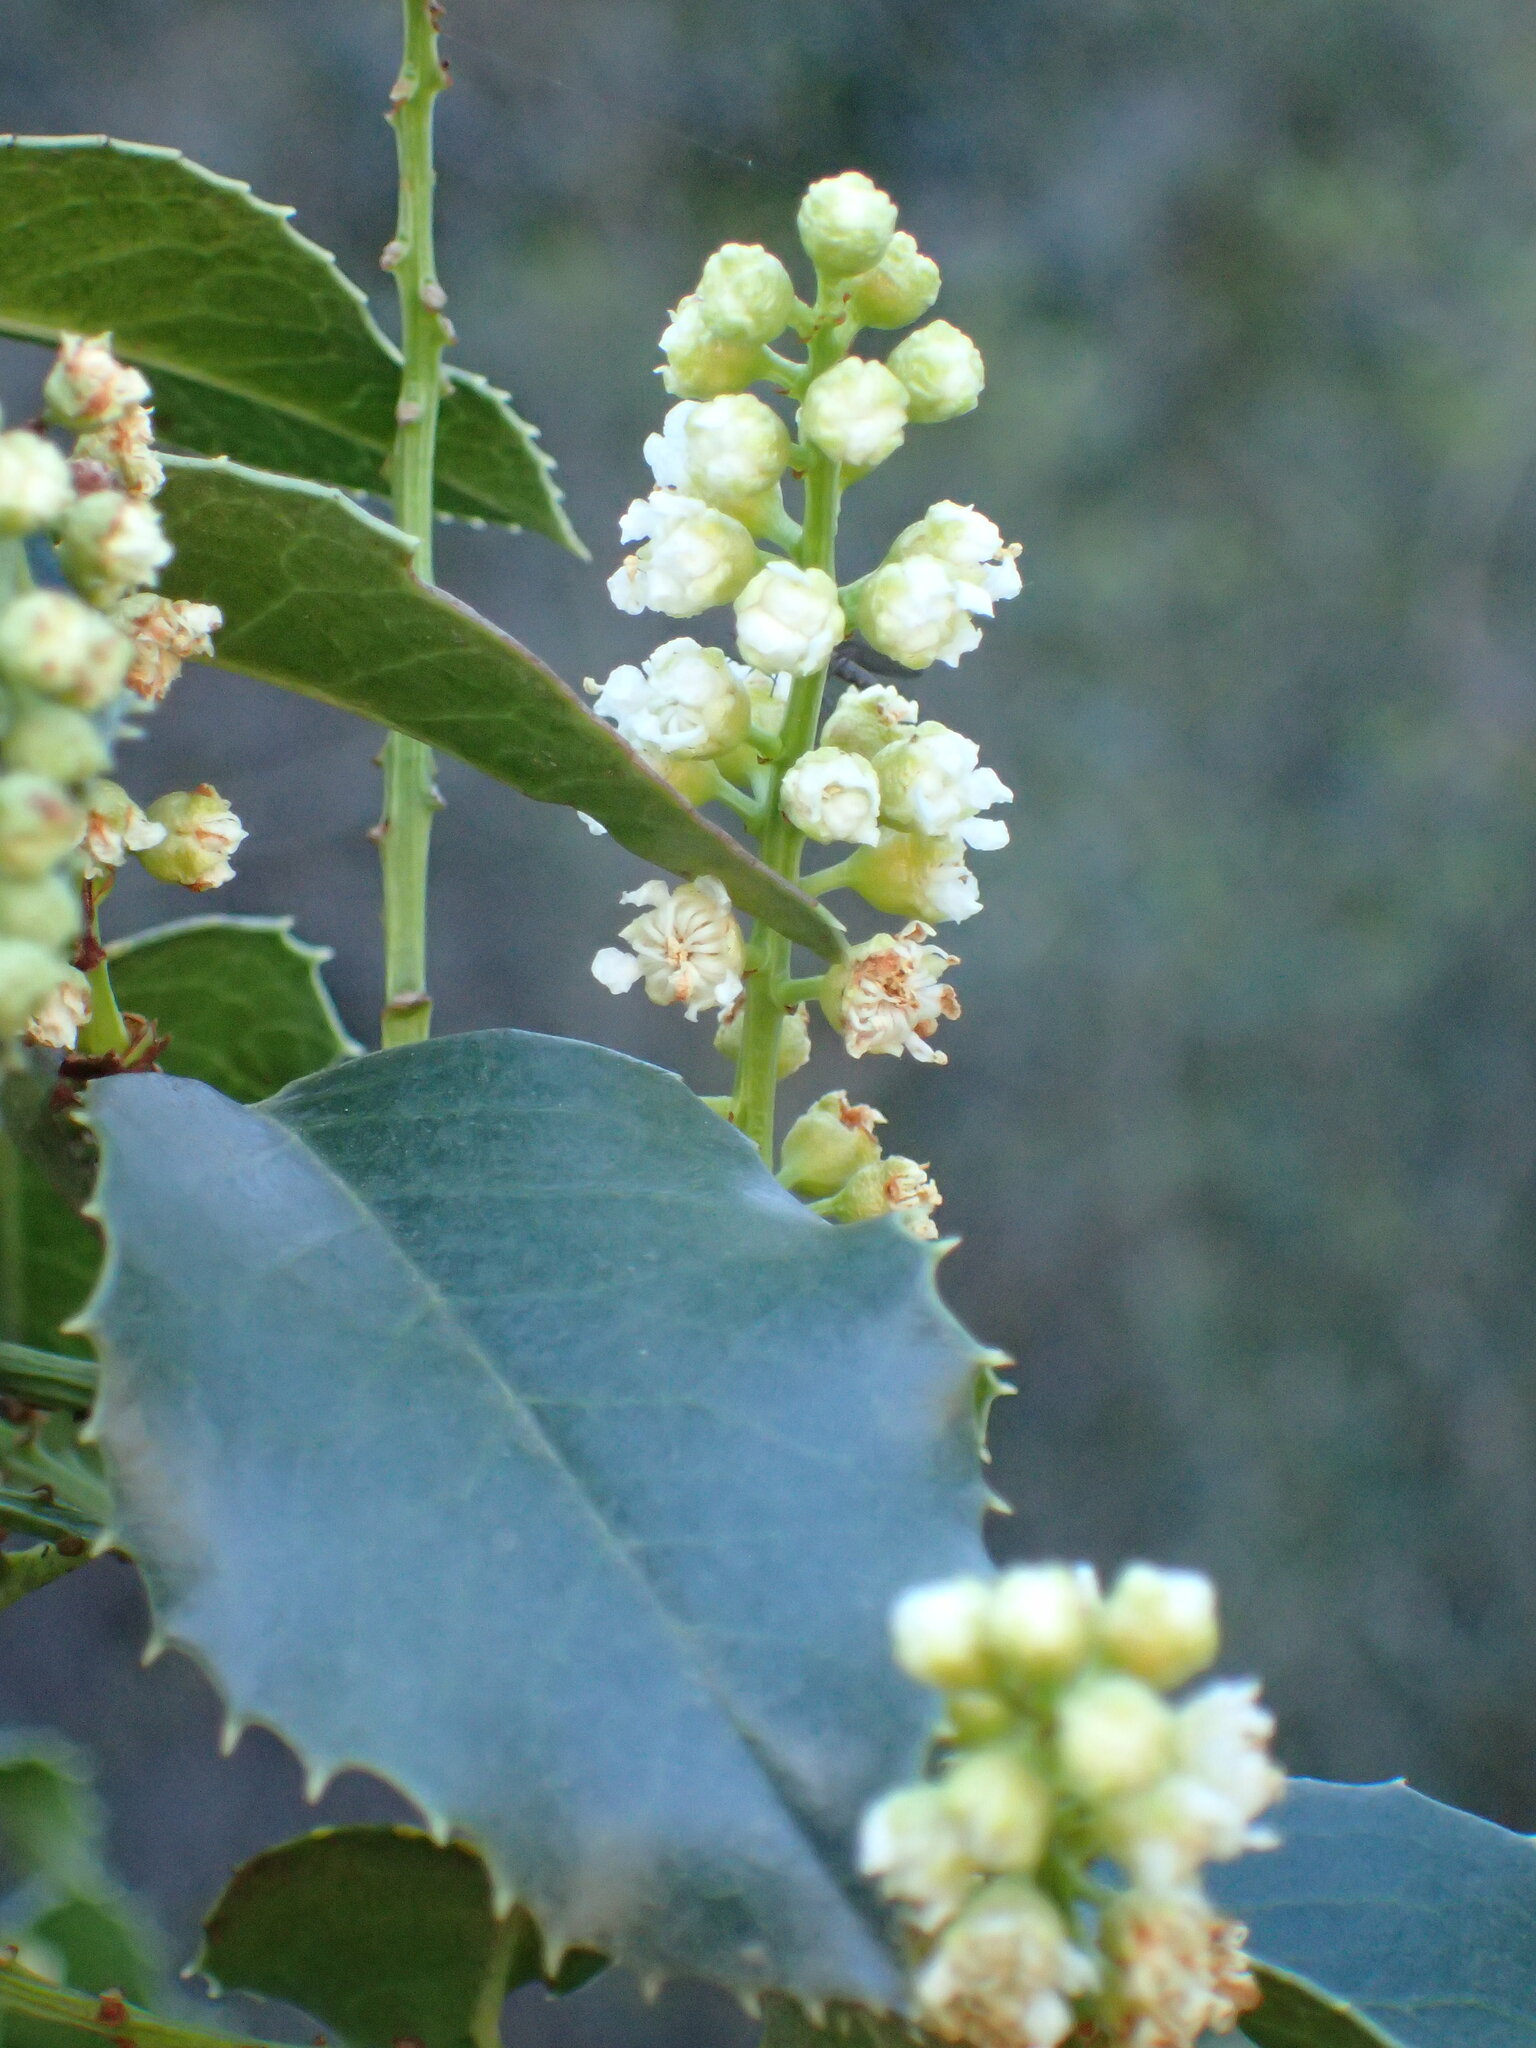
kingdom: Plantae
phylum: Tracheophyta
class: Magnoliopsida
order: Rosales
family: Rosaceae
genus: Prunus
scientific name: Prunus ilicifolia
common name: Hollyleaf cherry
